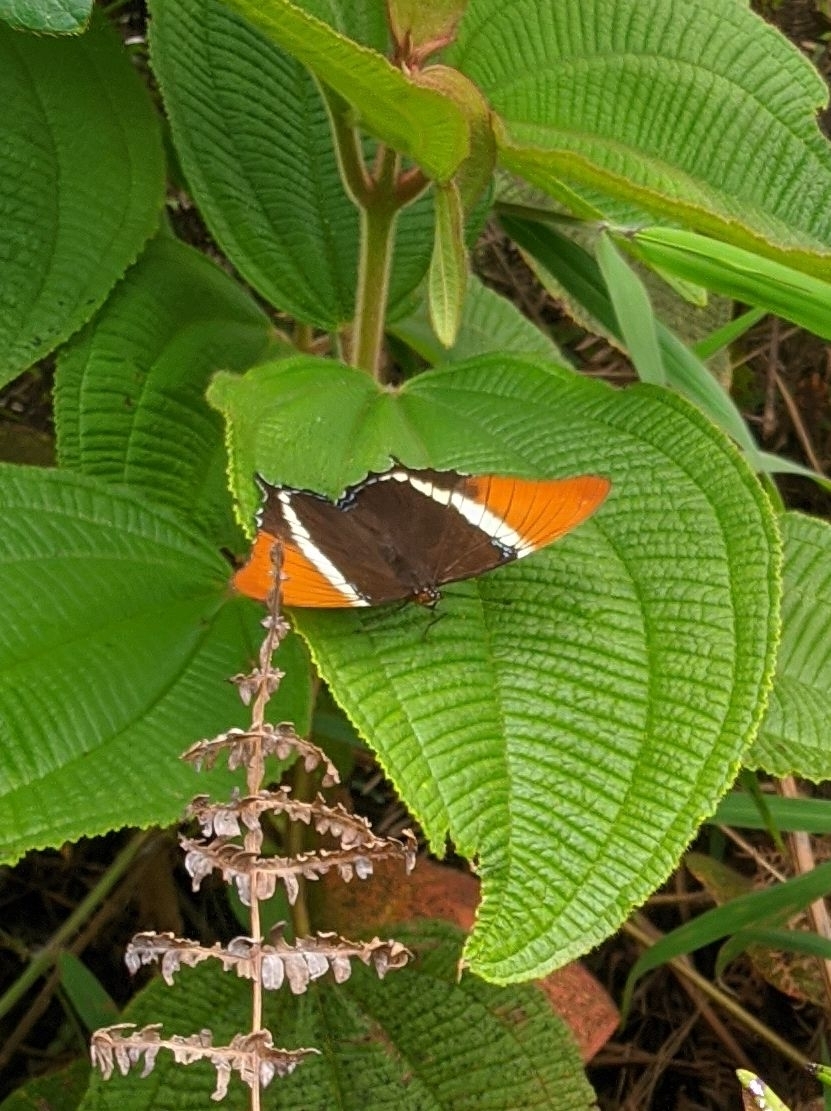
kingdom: Animalia
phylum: Arthropoda
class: Insecta
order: Lepidoptera
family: Nymphalidae
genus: Siproeta
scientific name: Siproeta epaphus
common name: Rusty-tipped page
